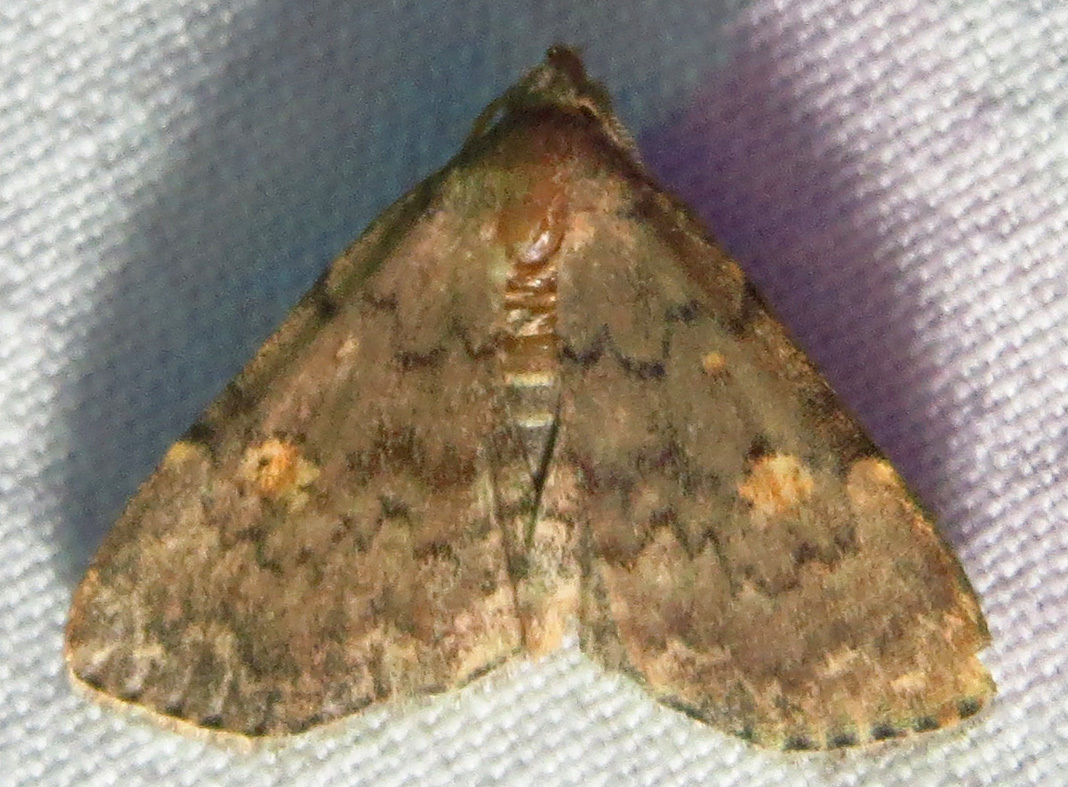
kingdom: Animalia
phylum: Arthropoda
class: Insecta
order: Lepidoptera
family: Erebidae
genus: Idia
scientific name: Idia aemula
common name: Common idia moth
